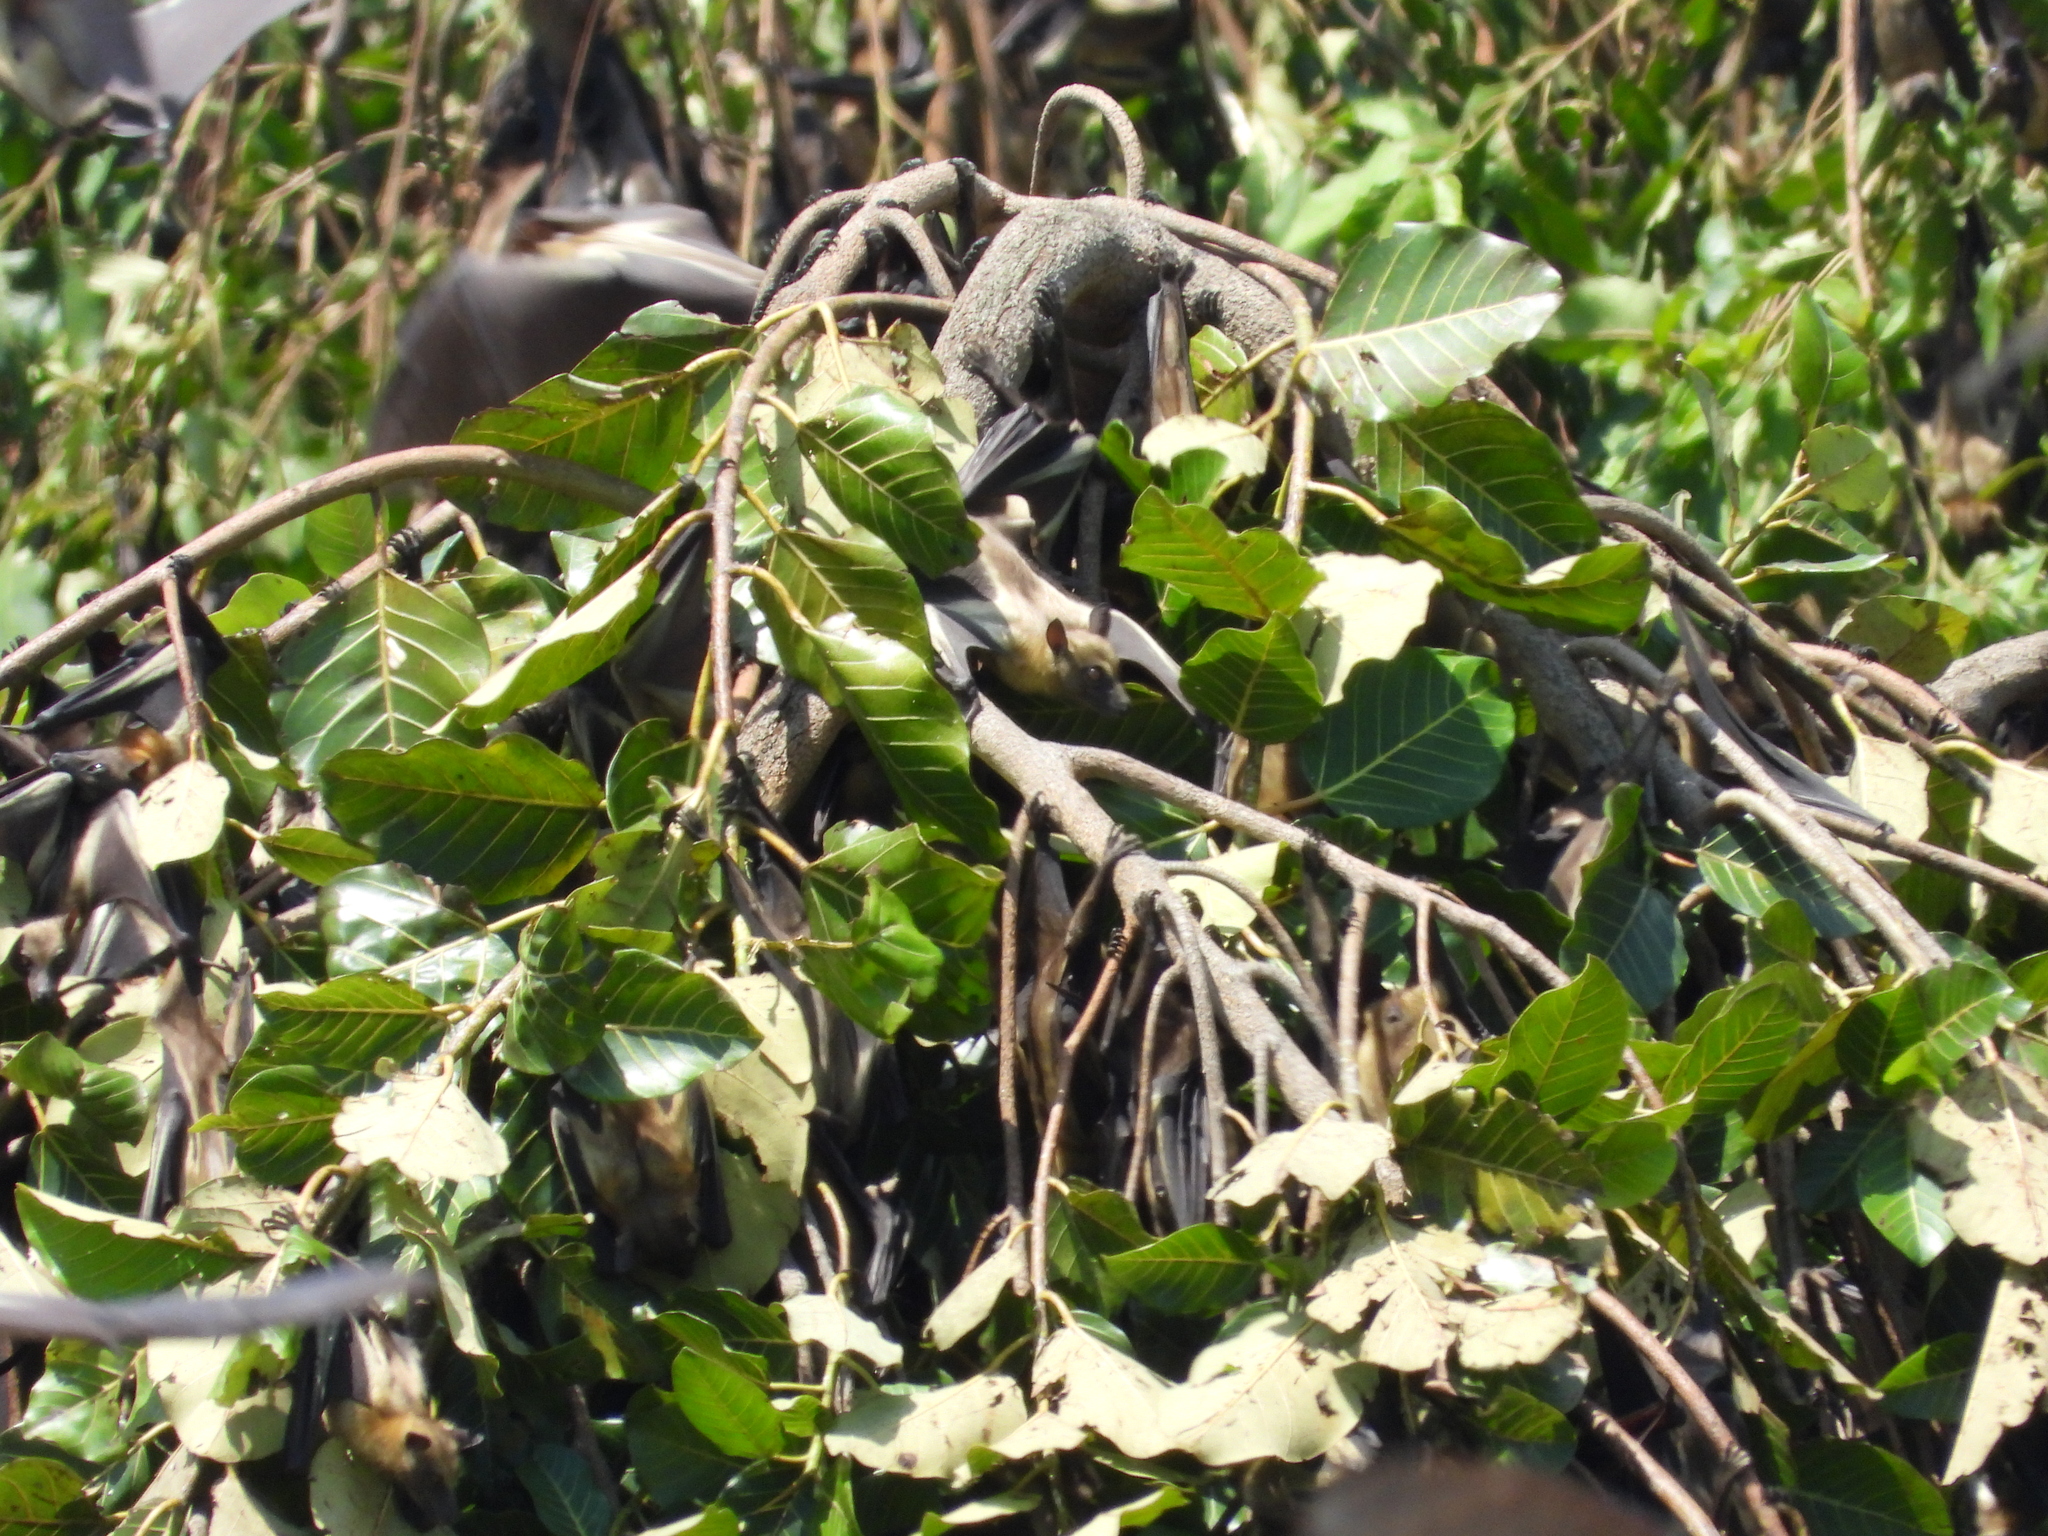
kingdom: Animalia
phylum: Chordata
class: Mammalia
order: Chiroptera
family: Pteropodidae
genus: Eidolon
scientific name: Eidolon helvum
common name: Straw-colored fruit bat
